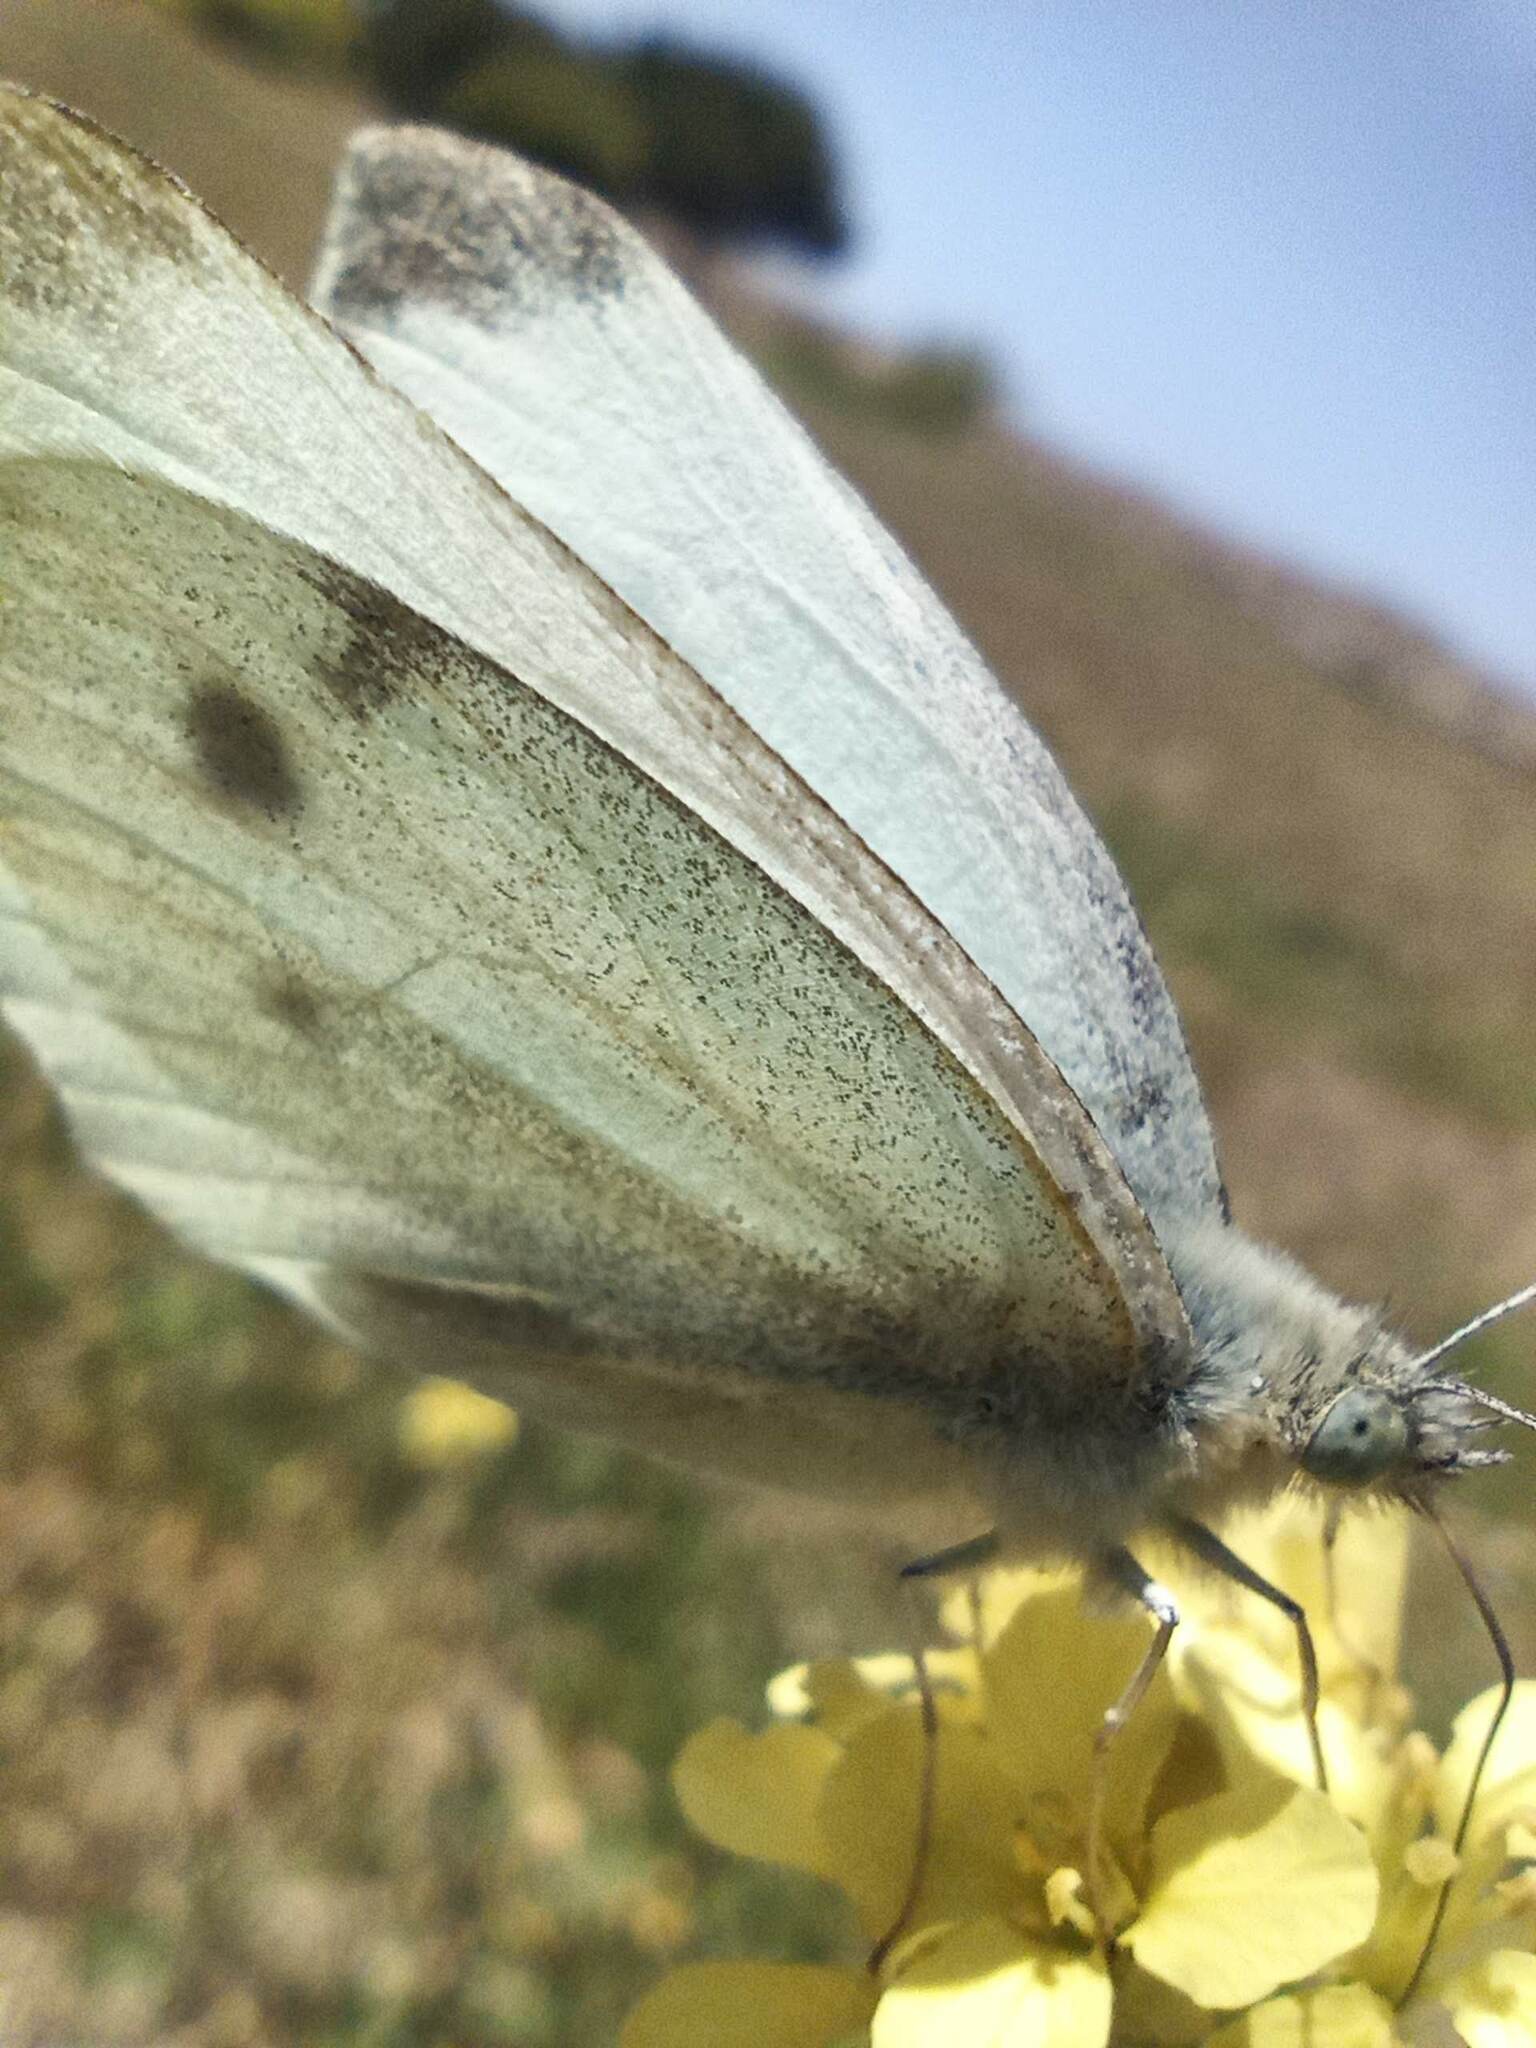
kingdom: Animalia
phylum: Arthropoda
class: Insecta
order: Lepidoptera
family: Pieridae
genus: Pieris
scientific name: Pieris rapae
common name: Small white
